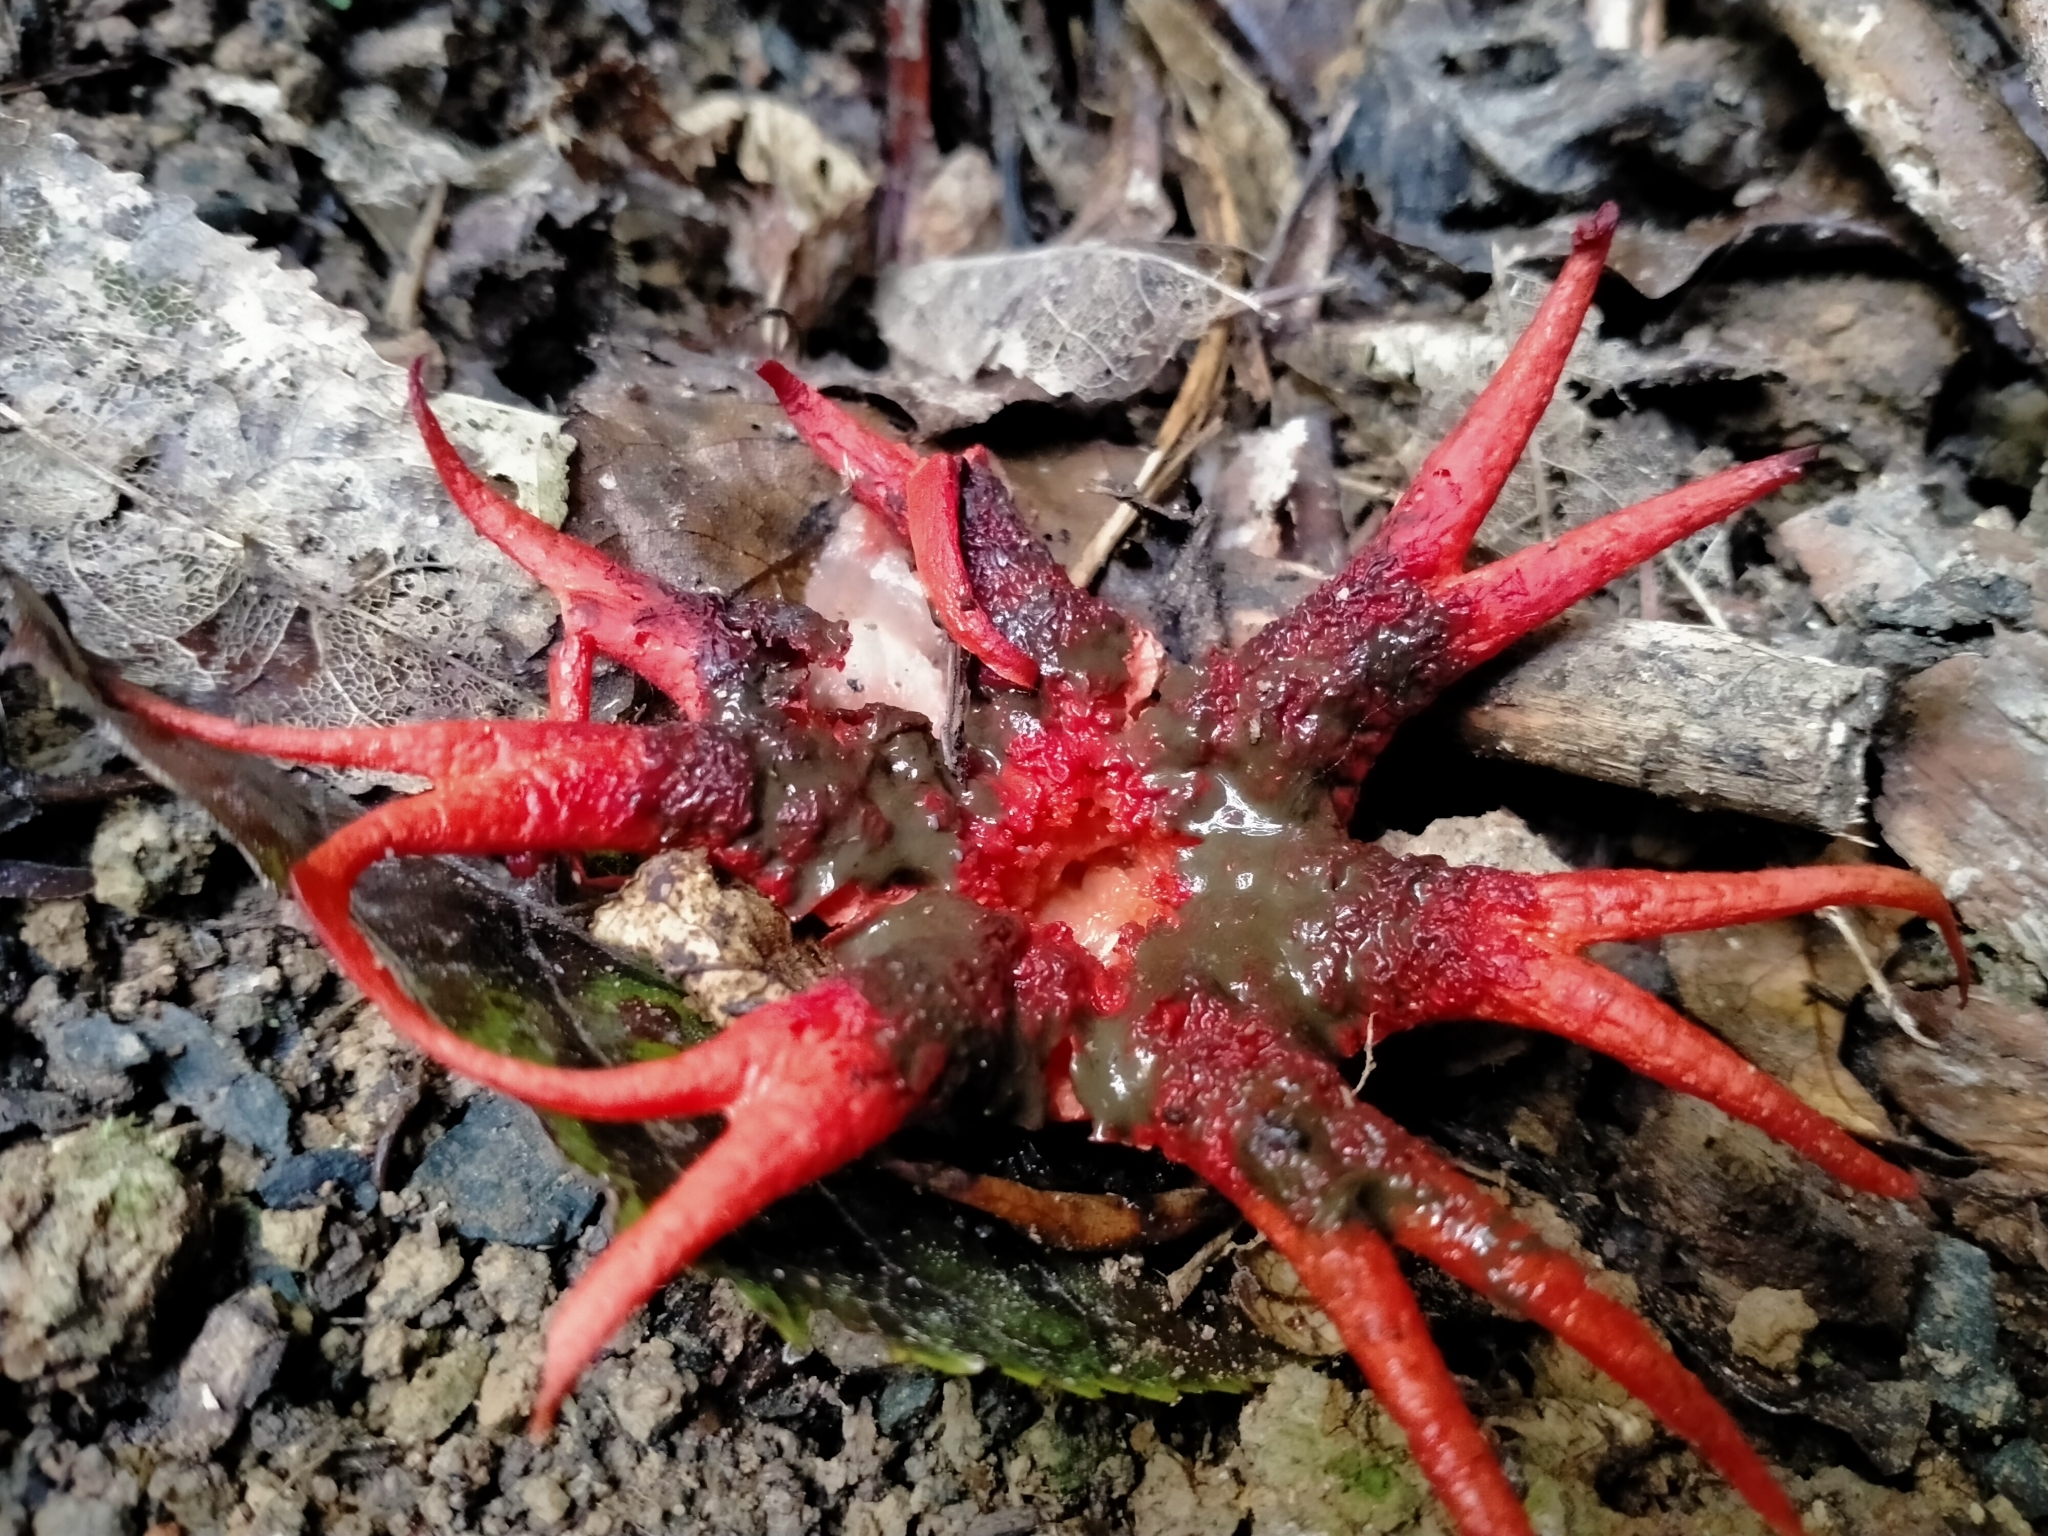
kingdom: Fungi
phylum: Basidiomycota
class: Agaricomycetes
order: Phallales
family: Phallaceae
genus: Aseroe
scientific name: Aseroe rubra
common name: Starfish fungus
